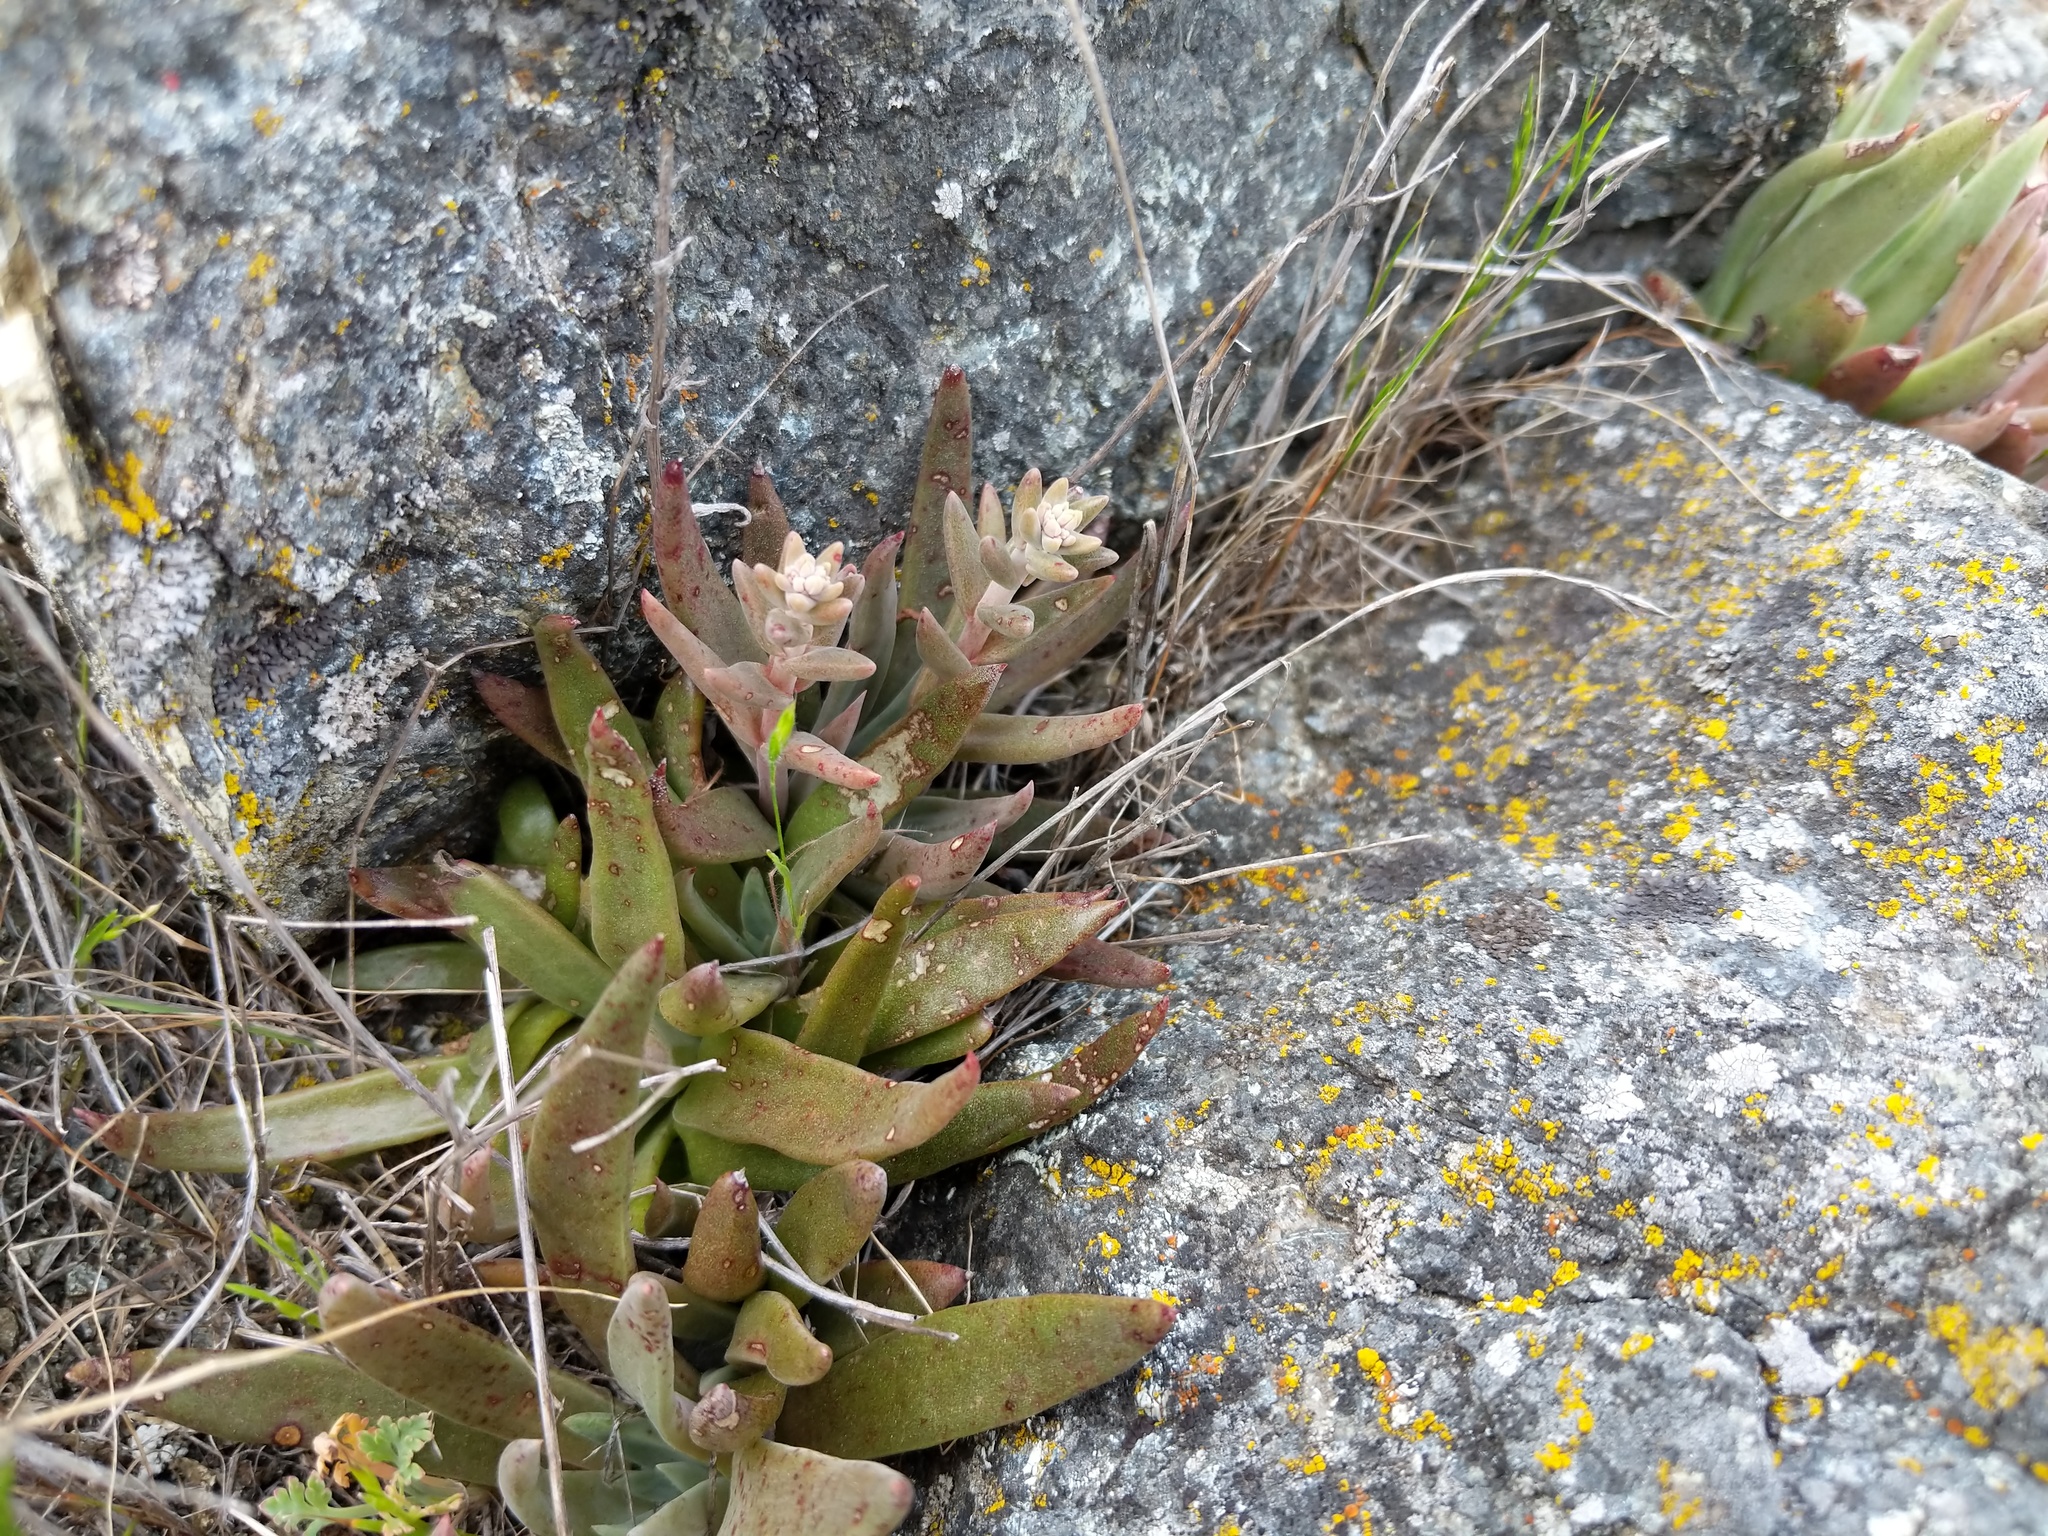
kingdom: Plantae
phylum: Tracheophyta
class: Magnoliopsida
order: Saxifragales
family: Crassulaceae
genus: Dudleya
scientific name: Dudleya abramsii
